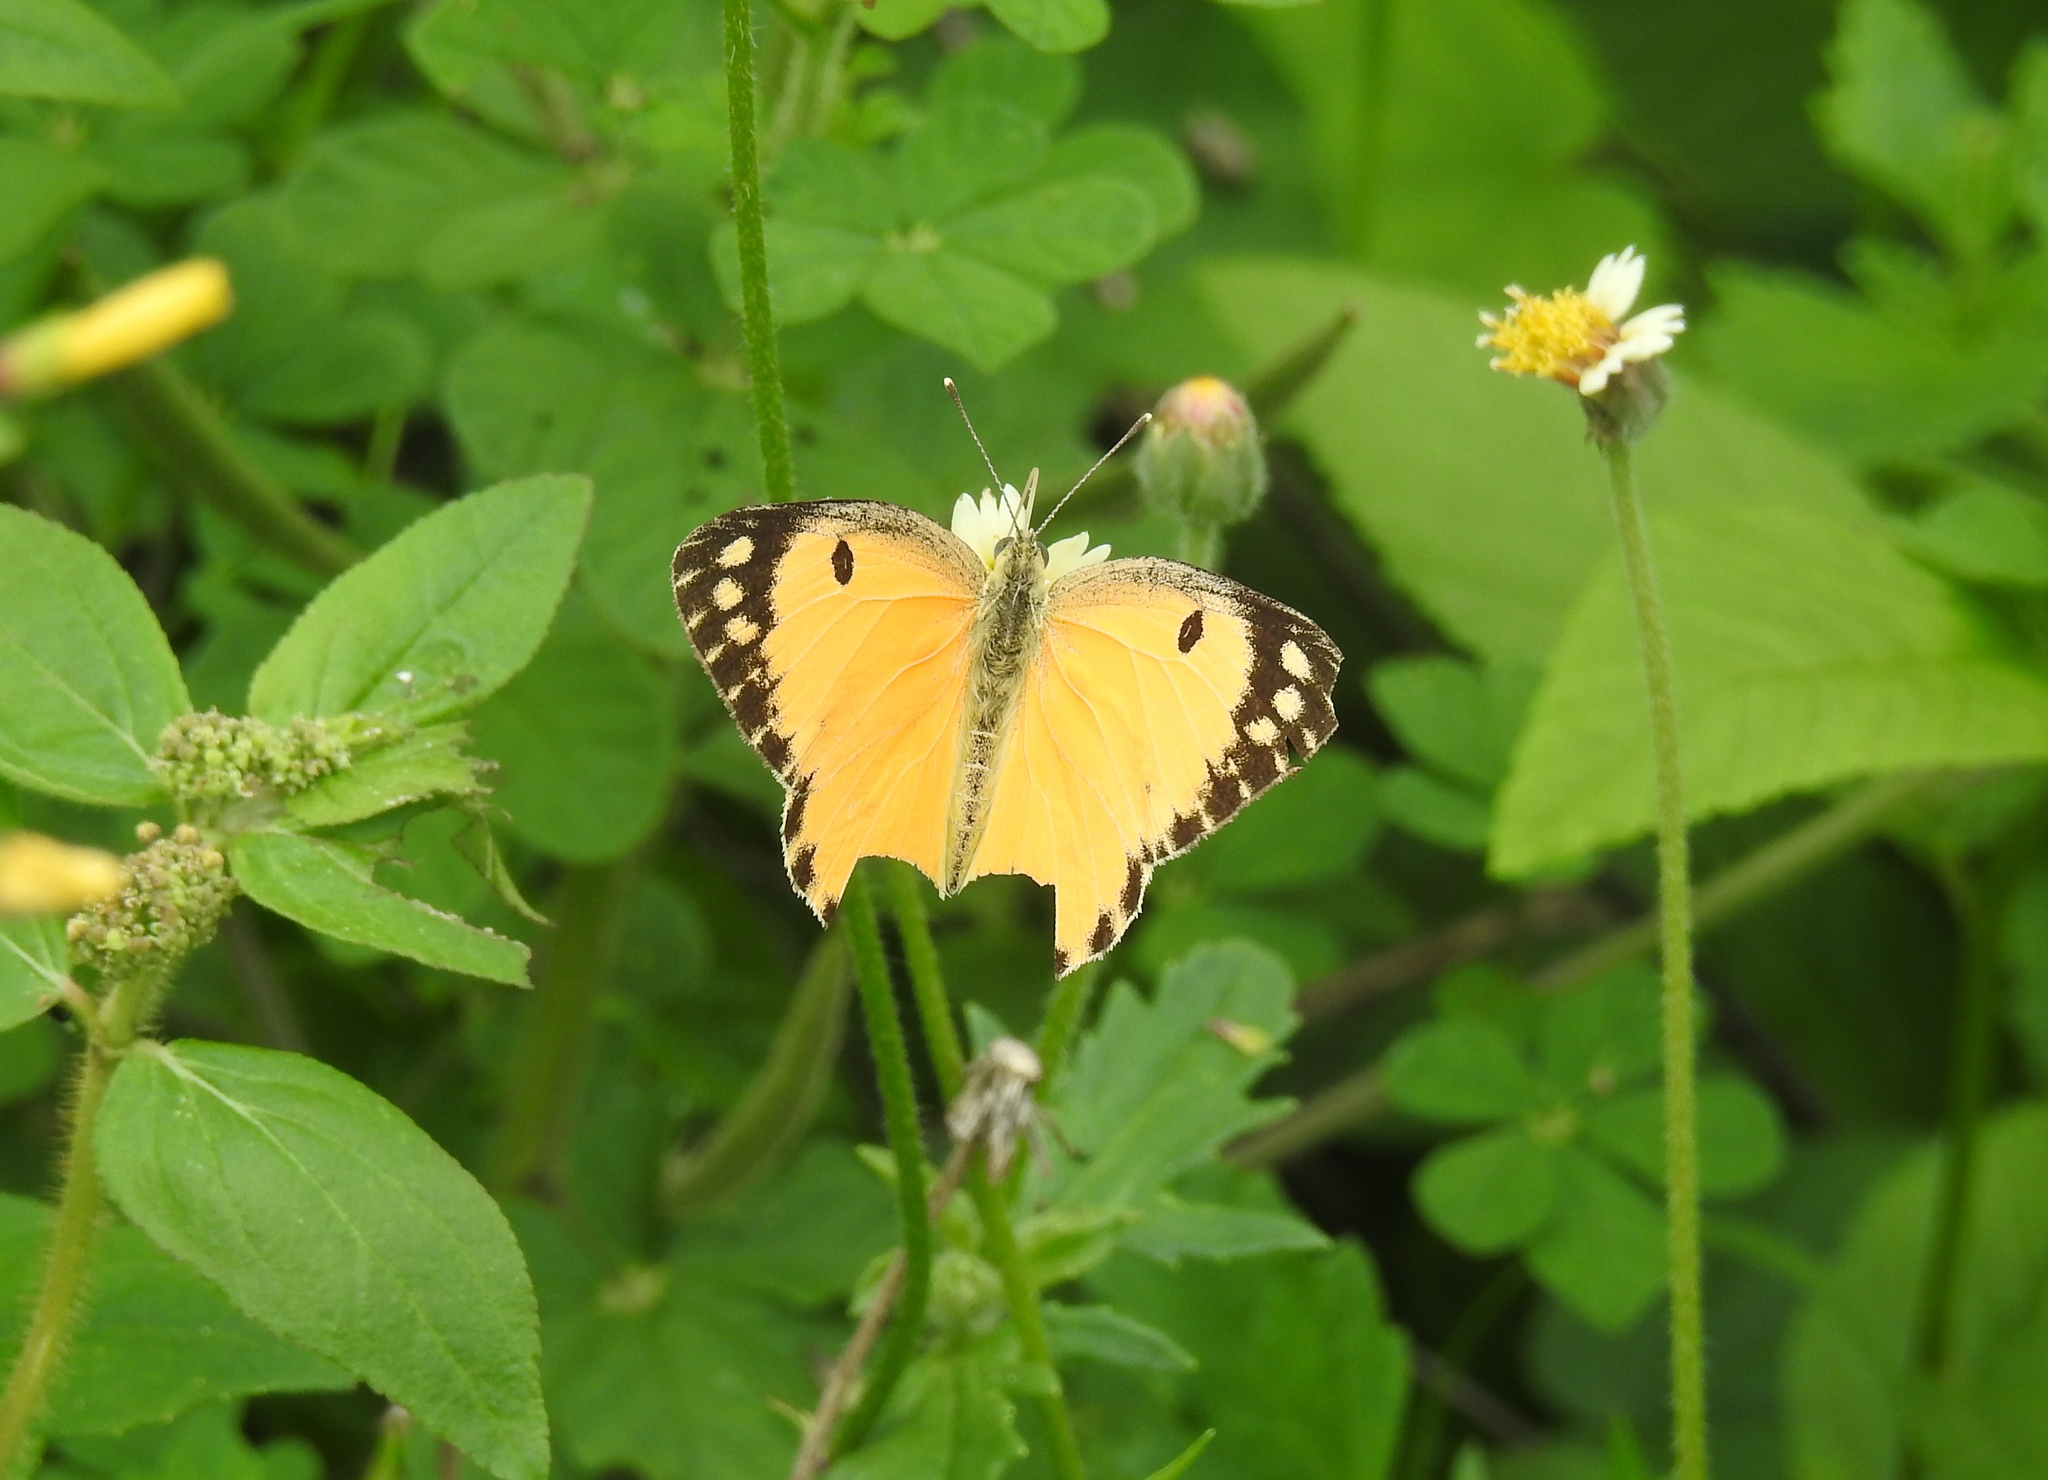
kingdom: Animalia
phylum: Arthropoda
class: Insecta
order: Lepidoptera
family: Pieridae
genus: Colotis
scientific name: Colotis fausta
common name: Large salmon arab
